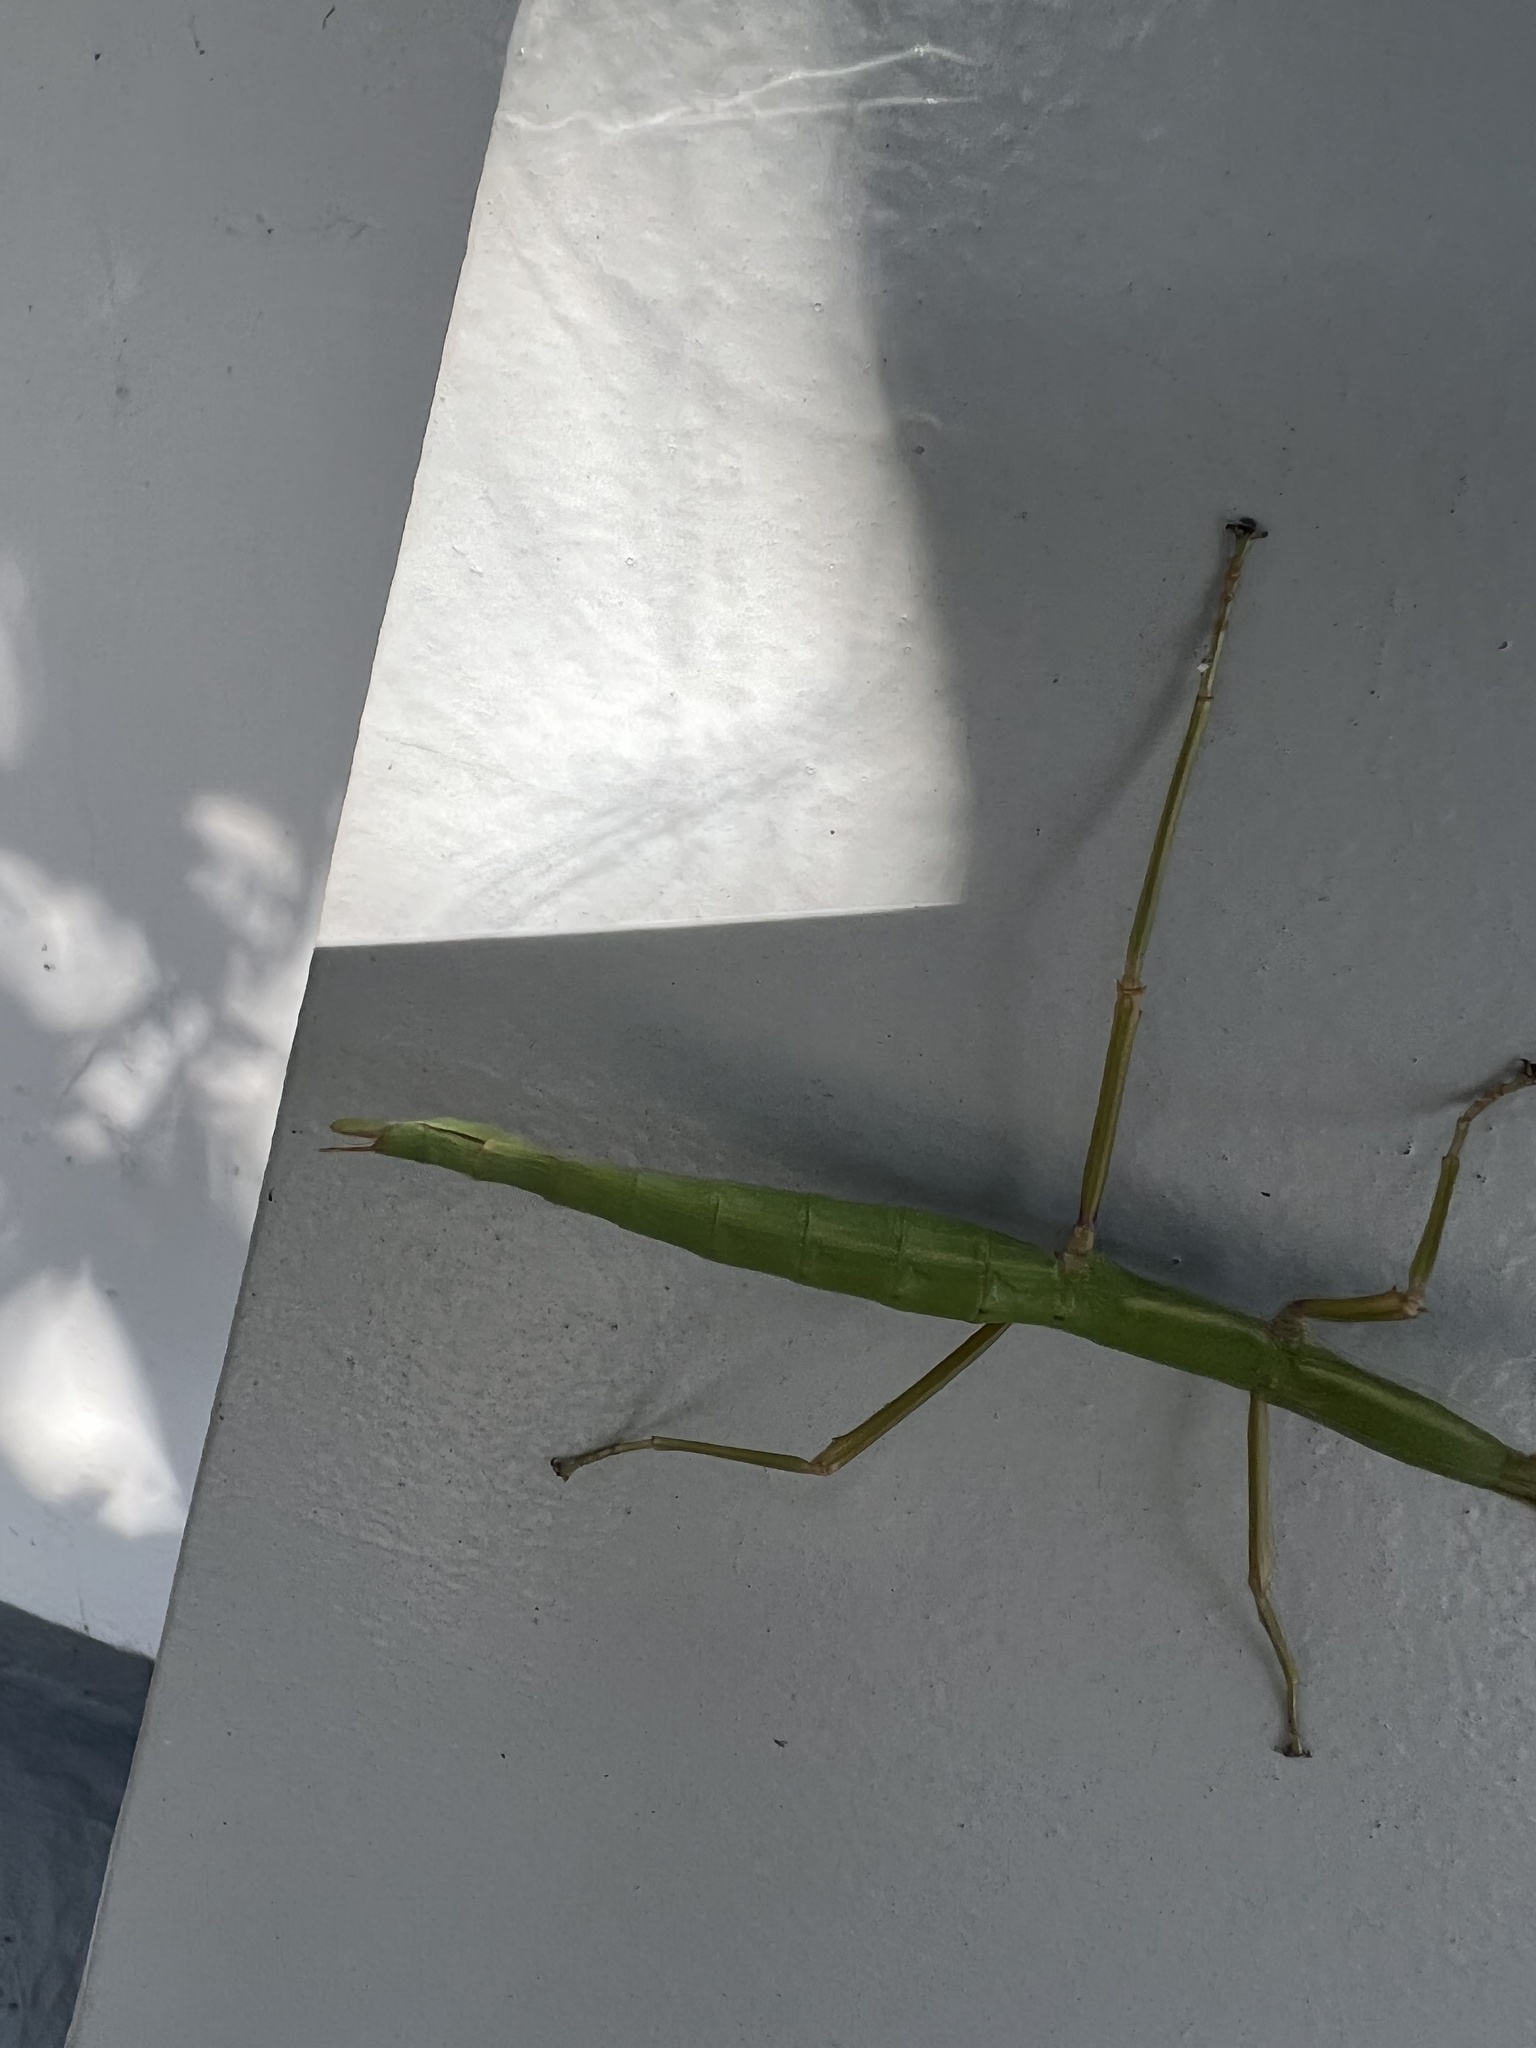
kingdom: Animalia
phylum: Arthropoda
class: Insecta
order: Phasmida
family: Phasmatidae
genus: Acanthoxyla
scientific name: Acanthoxyla inermis
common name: Unarmed stick insect
